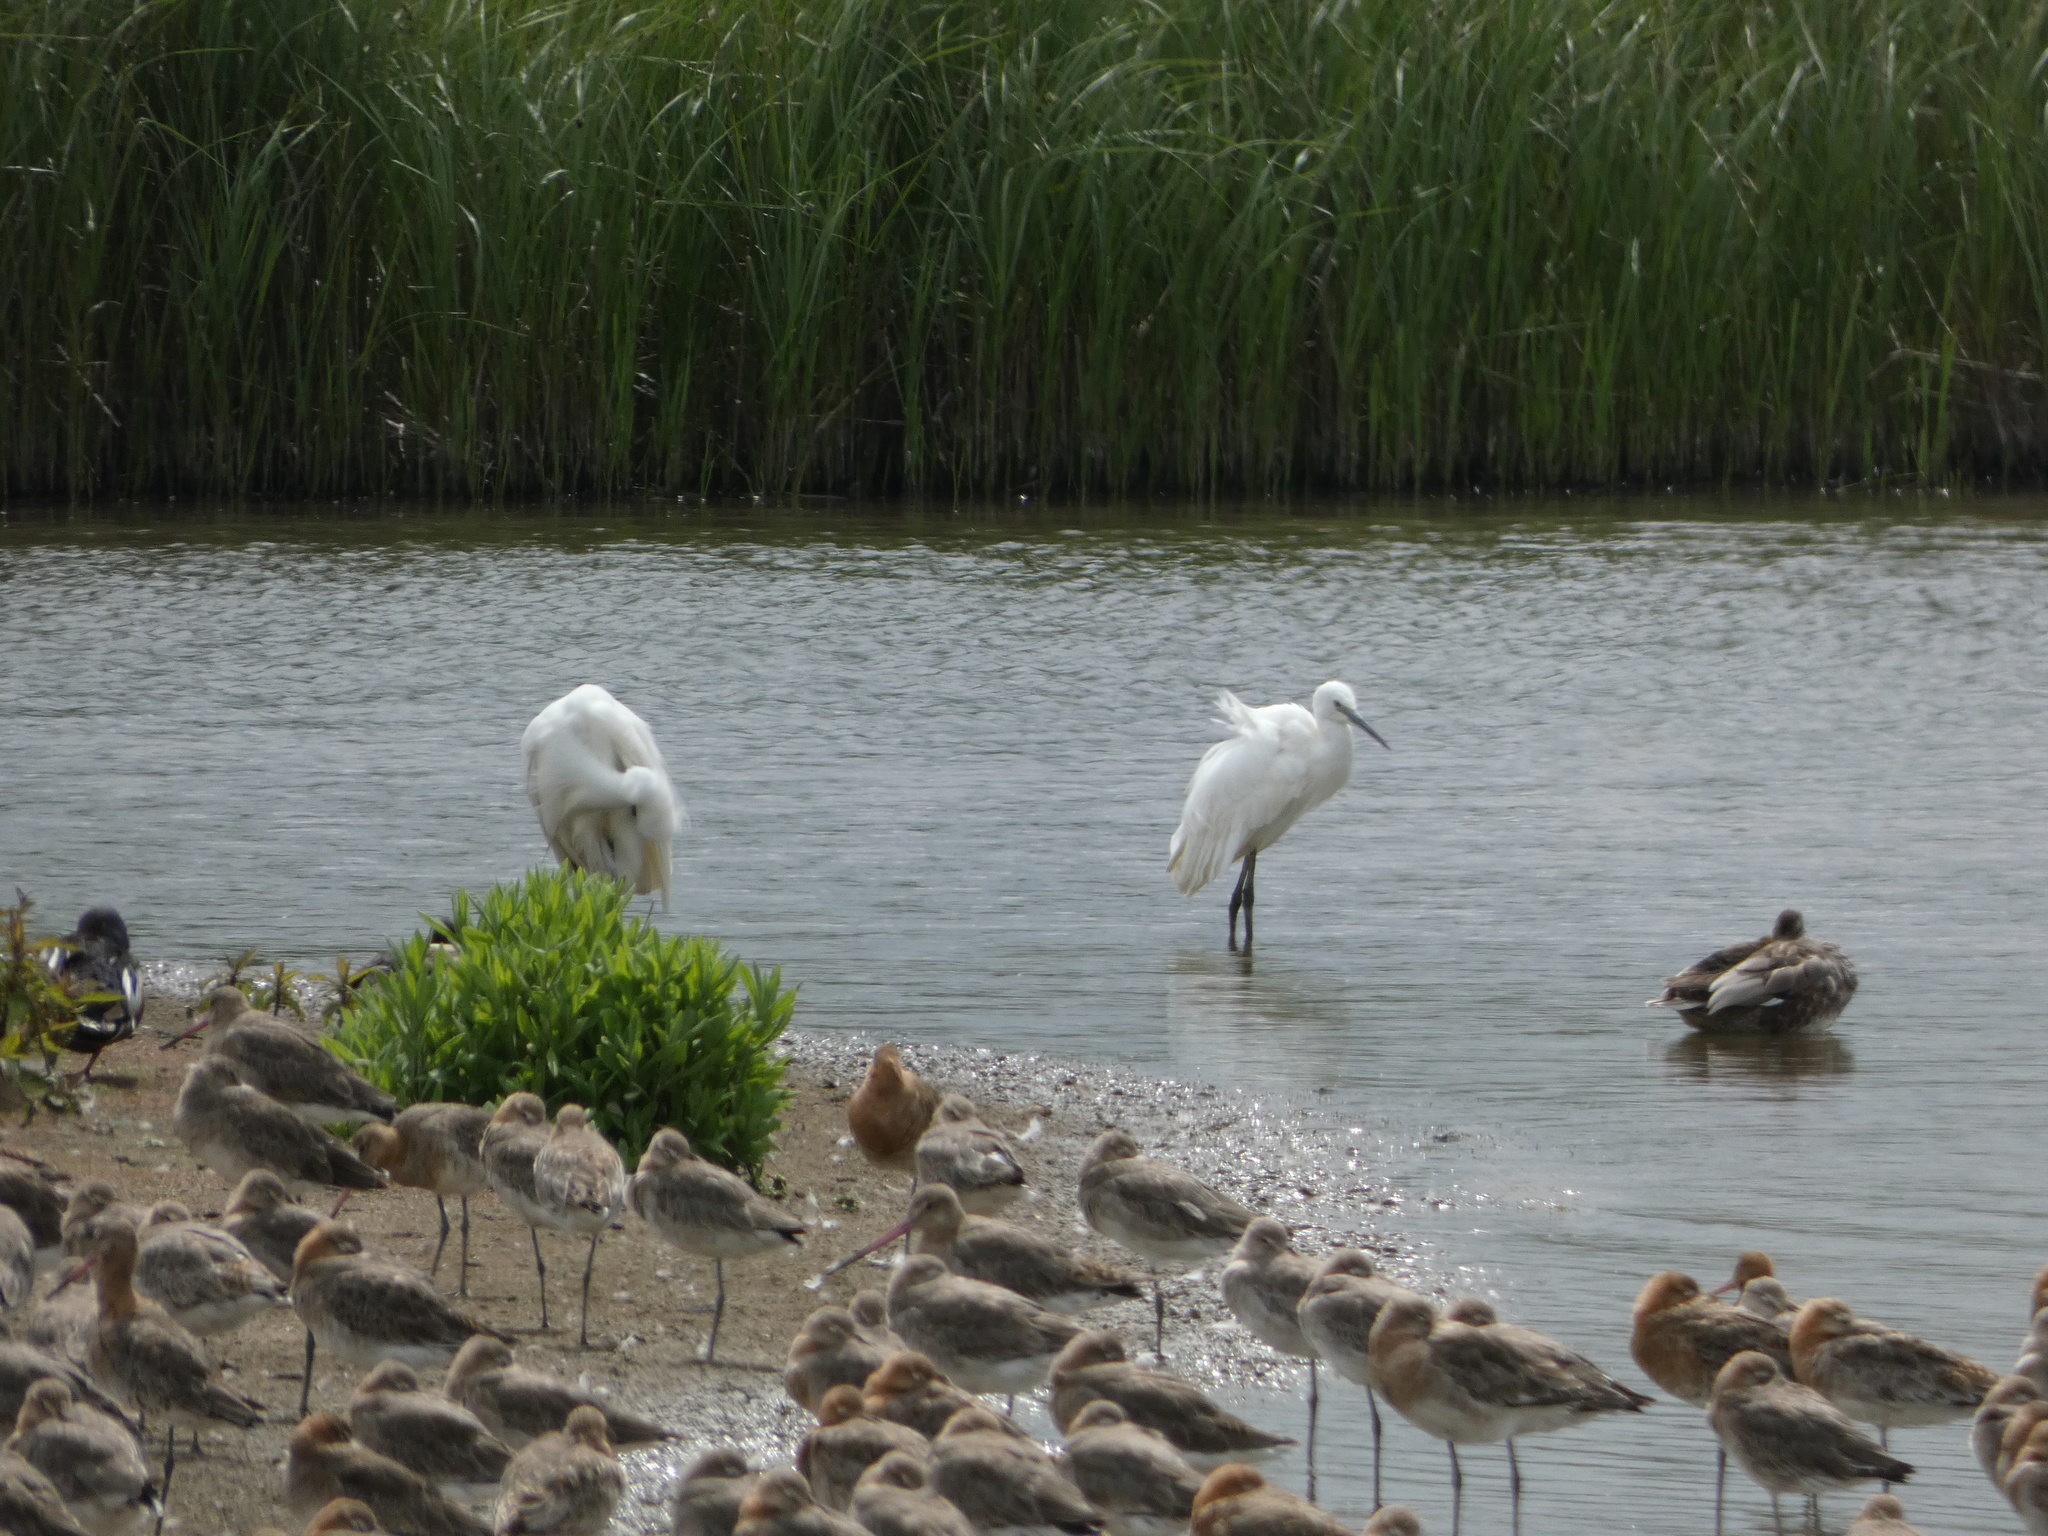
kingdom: Animalia
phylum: Chordata
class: Aves
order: Pelecaniformes
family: Ardeidae
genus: Egretta
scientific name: Egretta garzetta
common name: Little egret
